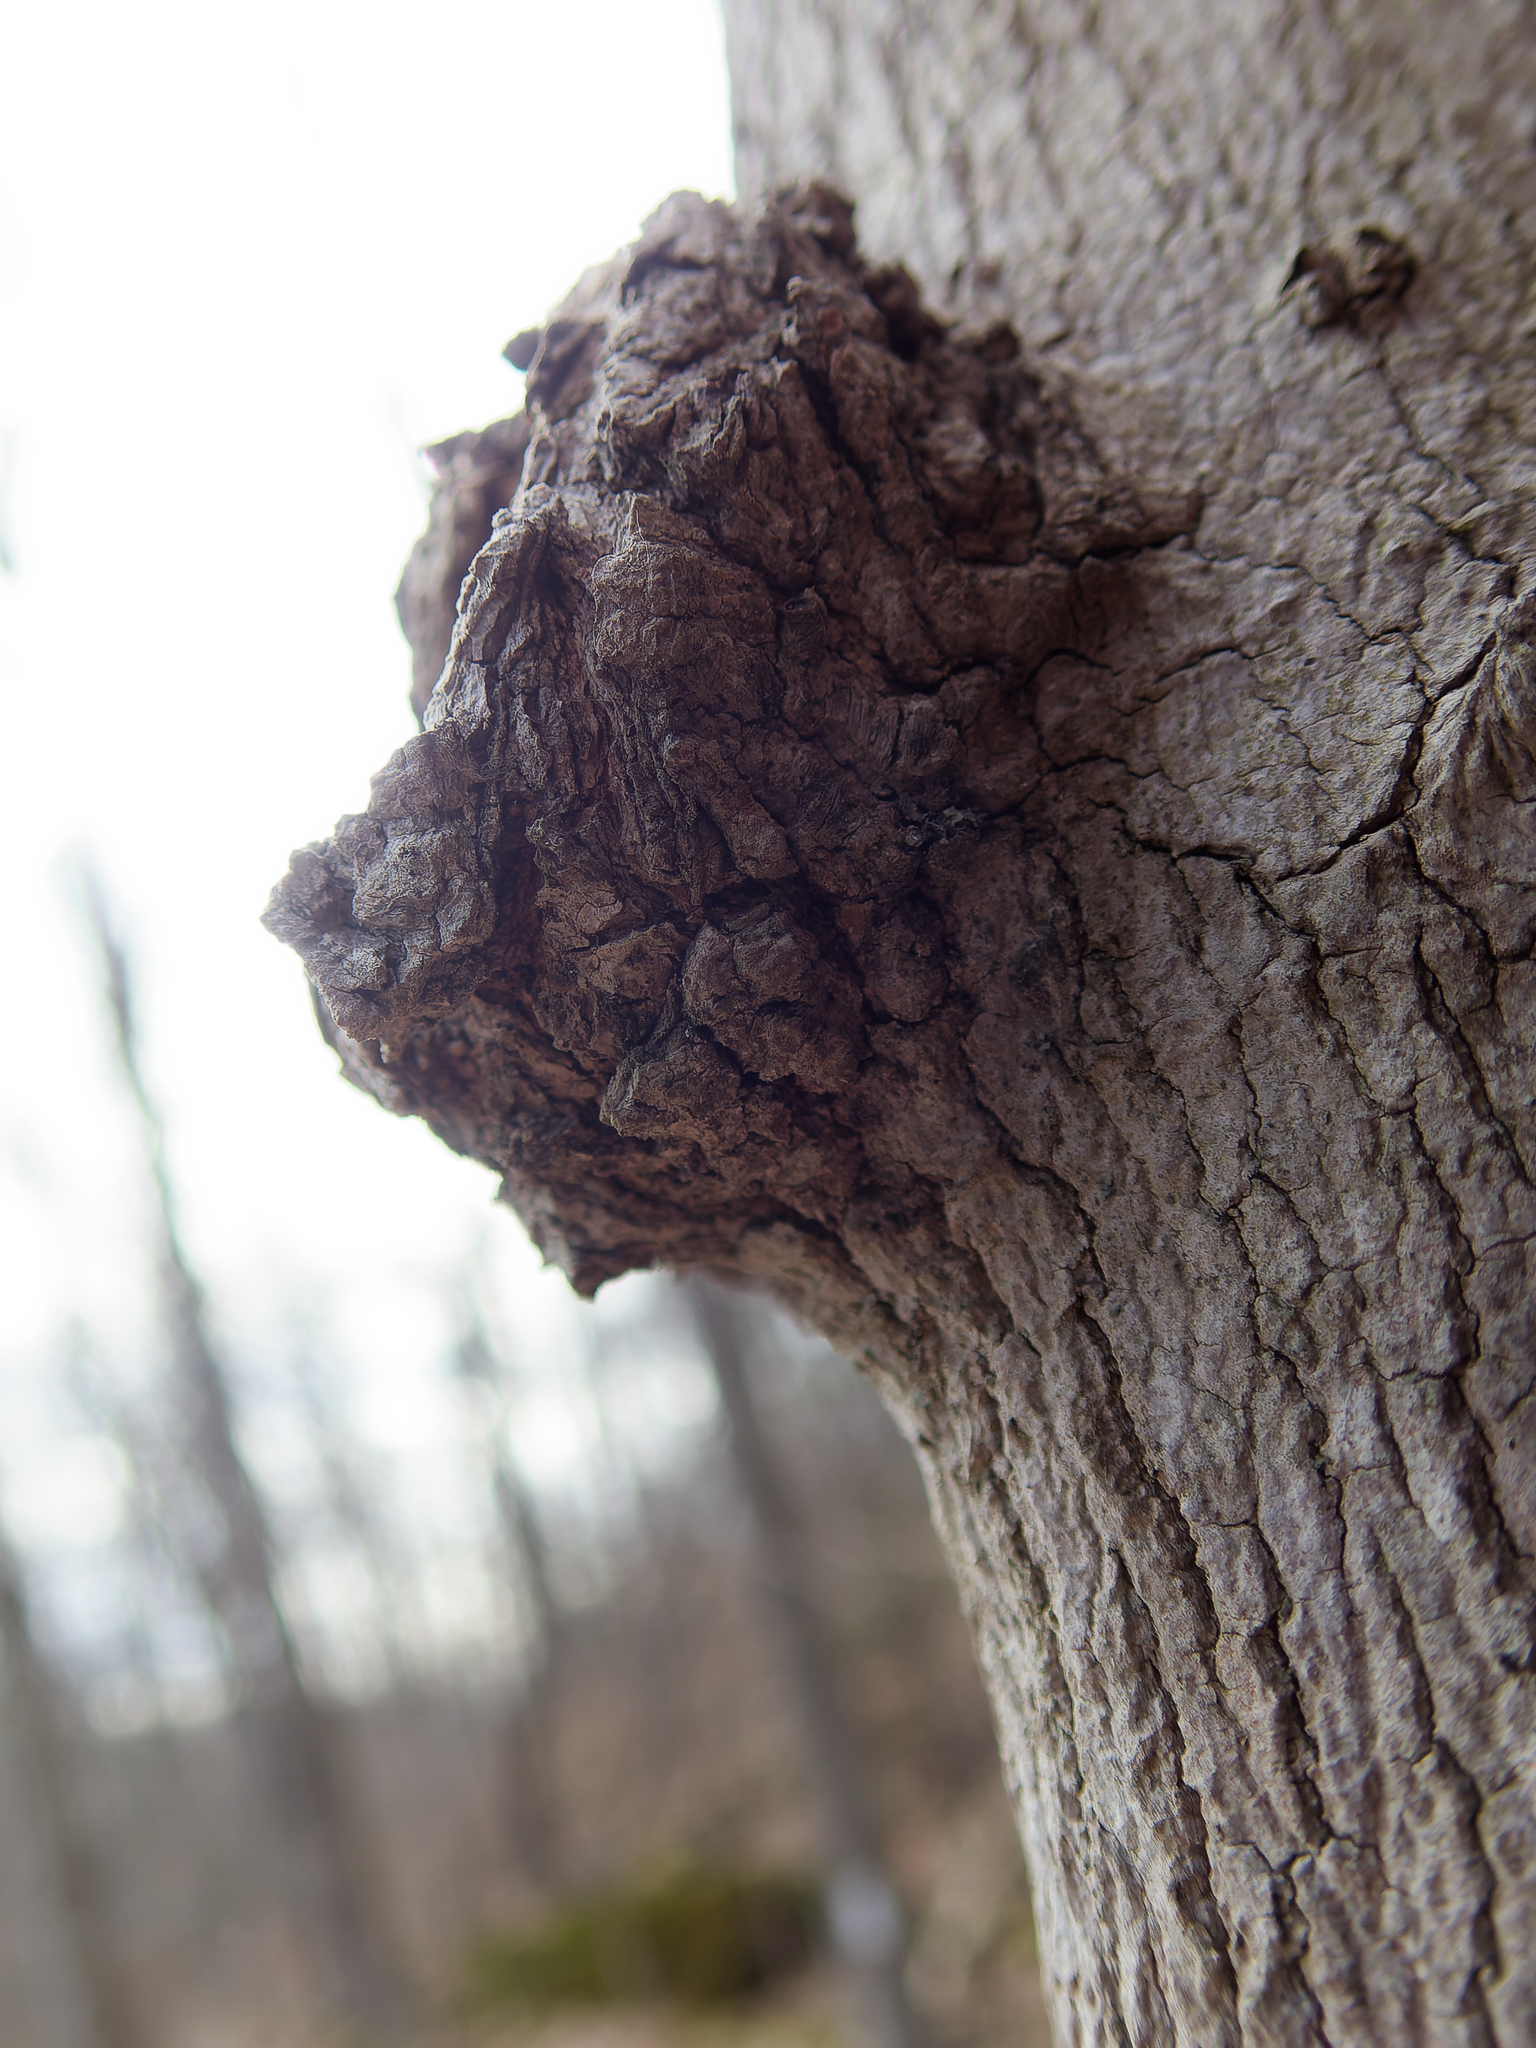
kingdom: Bacteria
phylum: Proteobacteria
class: Alphaproteobacteria
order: Rhizobiales
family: Rhizobiaceae
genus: Rhizobium
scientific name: Rhizobium Agrobacterium radiobacter
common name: Bacterial crown gall
